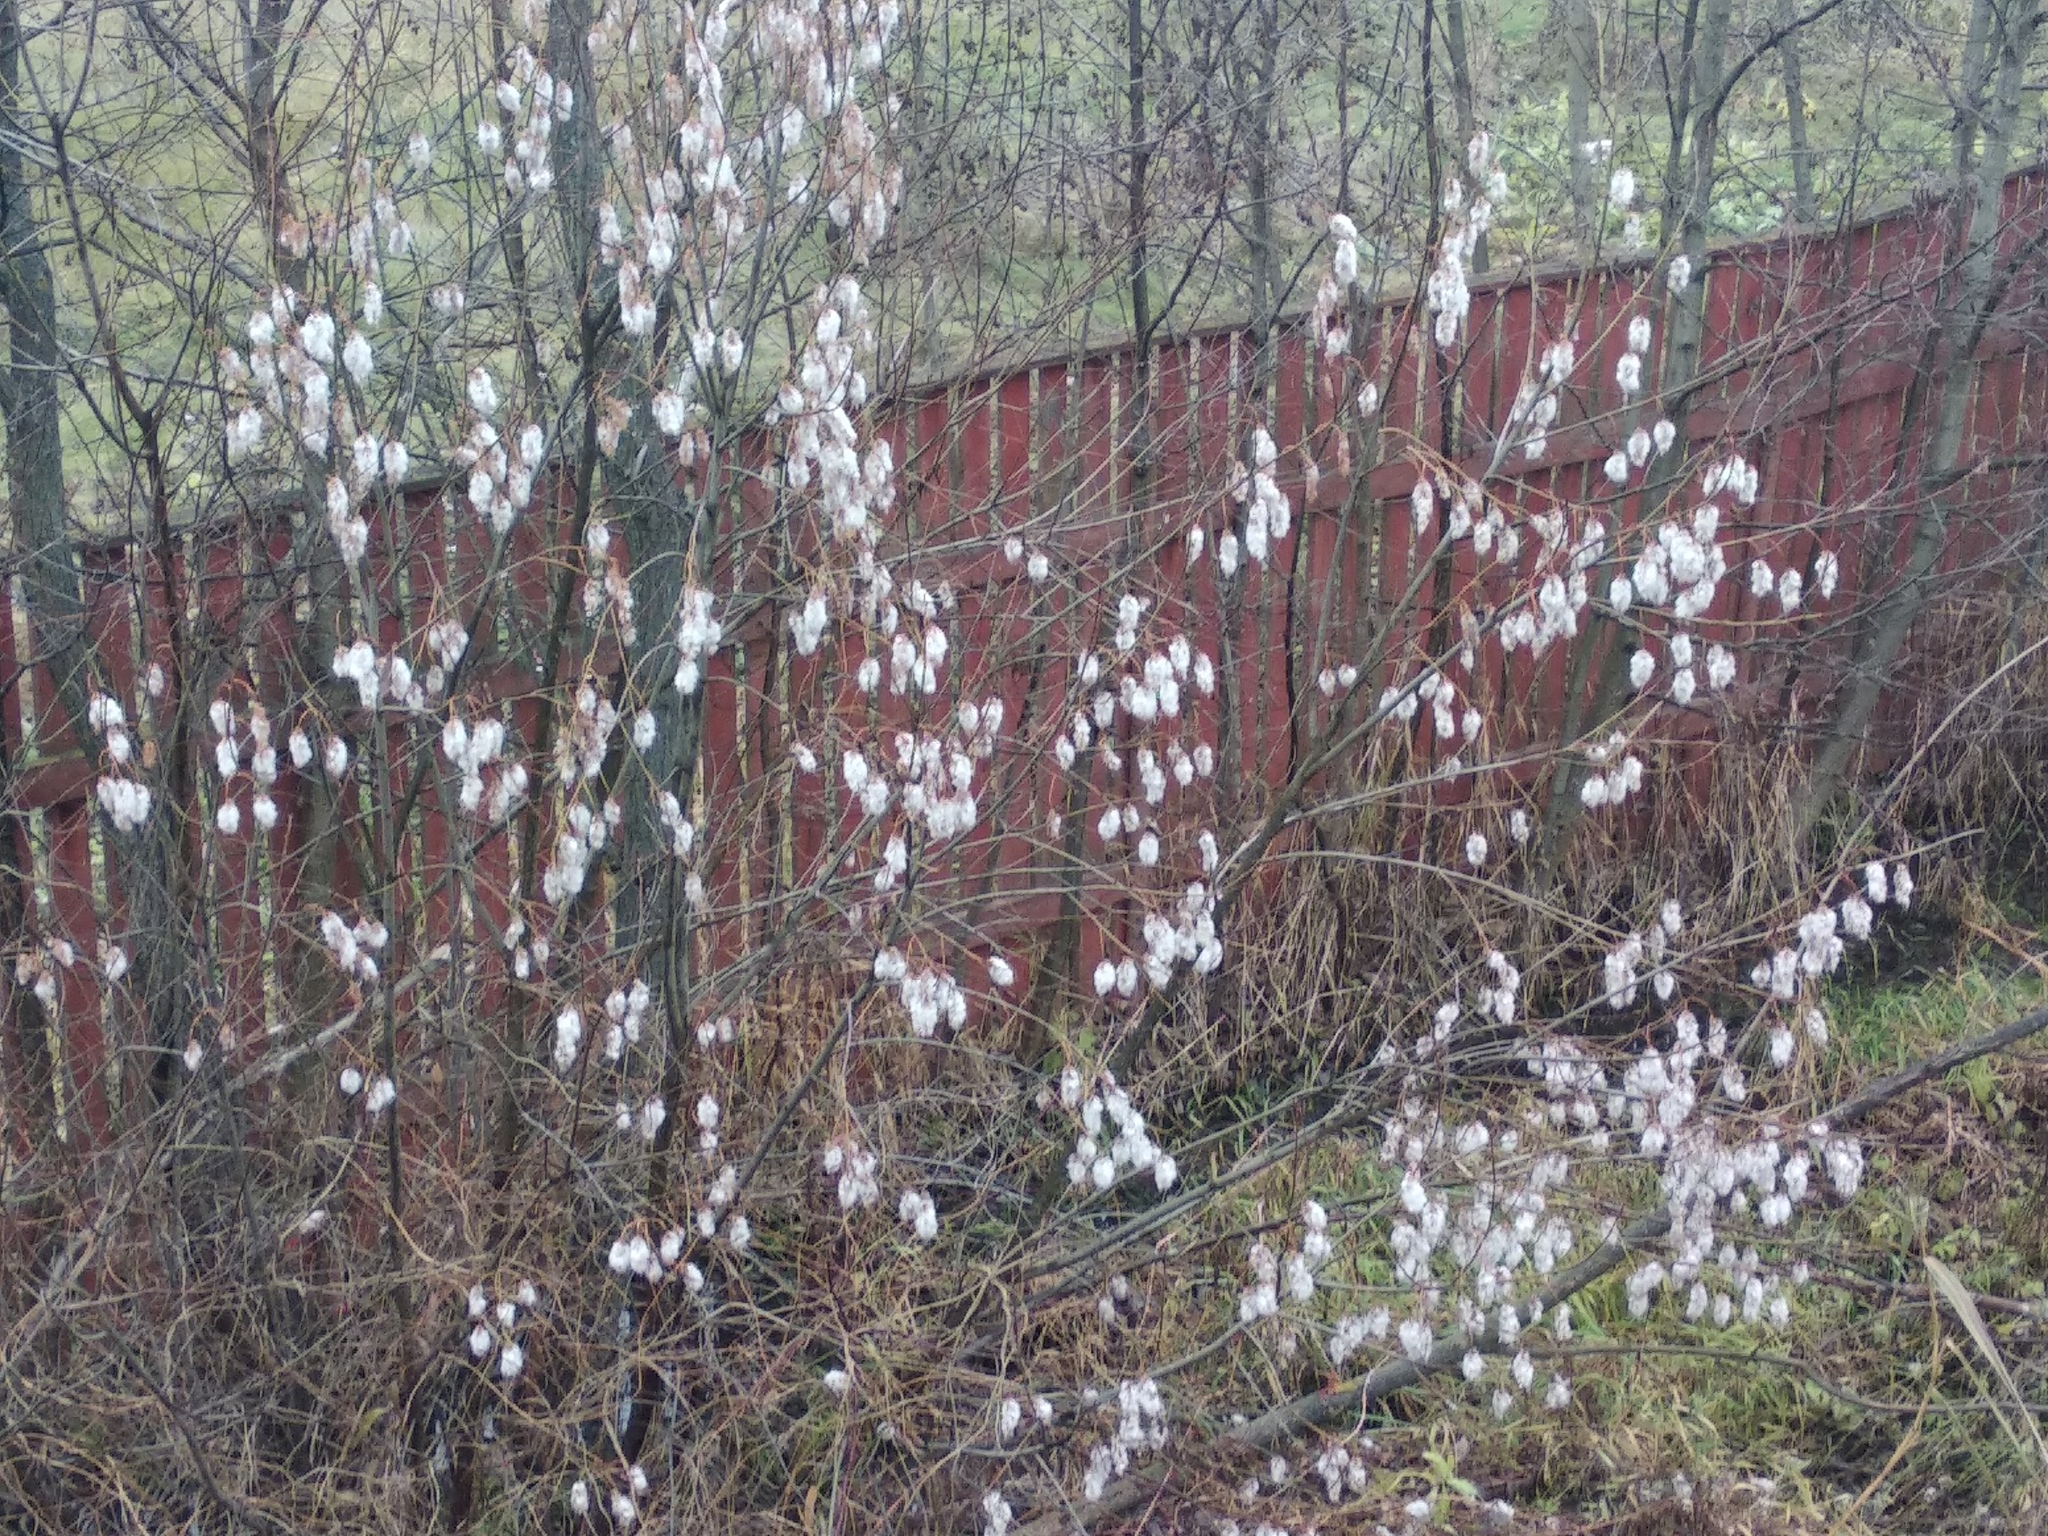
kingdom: Plantae
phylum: Tracheophyta
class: Magnoliopsida
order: Malpighiales
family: Salicaceae
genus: Salix
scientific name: Salix pentandra
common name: Bay willow
